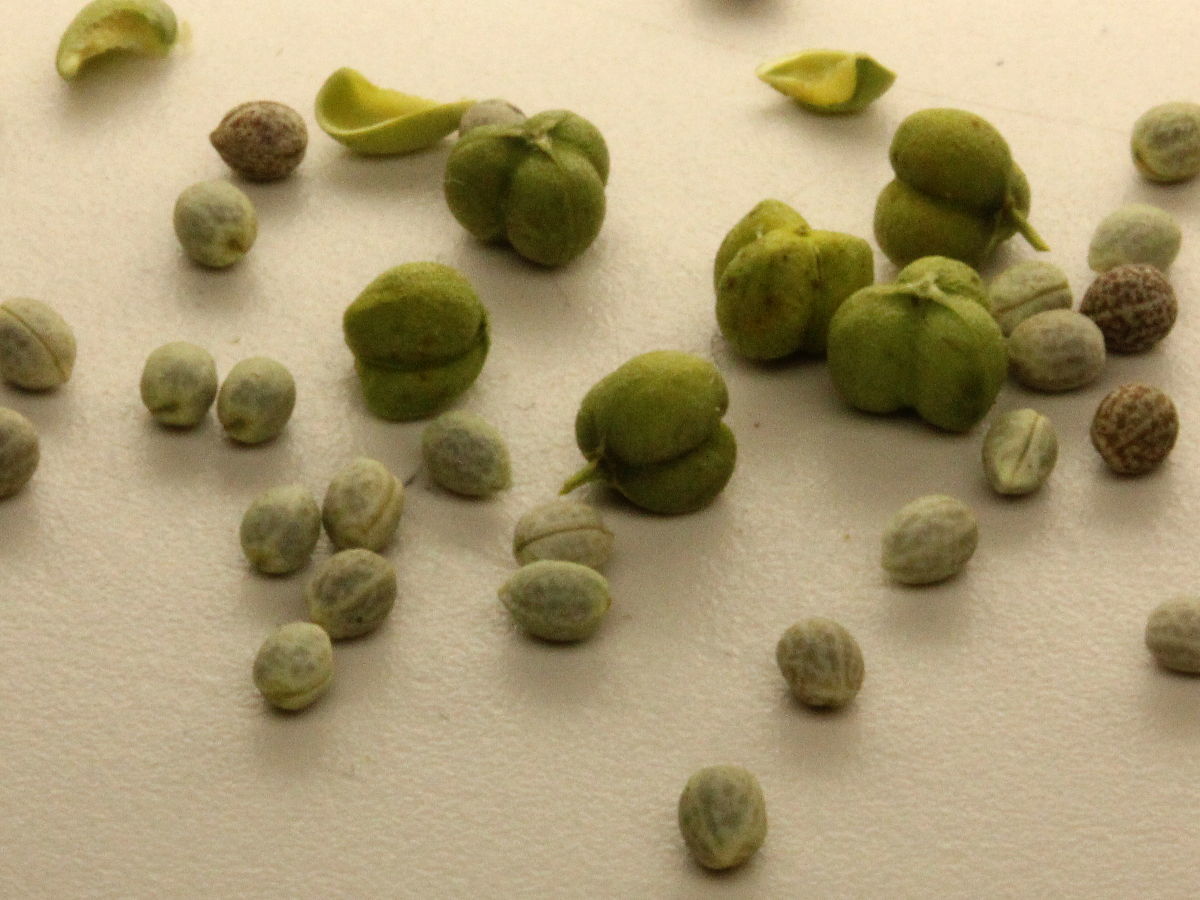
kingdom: Plantae
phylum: Tracheophyta
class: Magnoliopsida
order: Malpighiales
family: Euphorbiaceae
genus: Euphorbia
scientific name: Euphorbia corollata
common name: Flowering spurge
